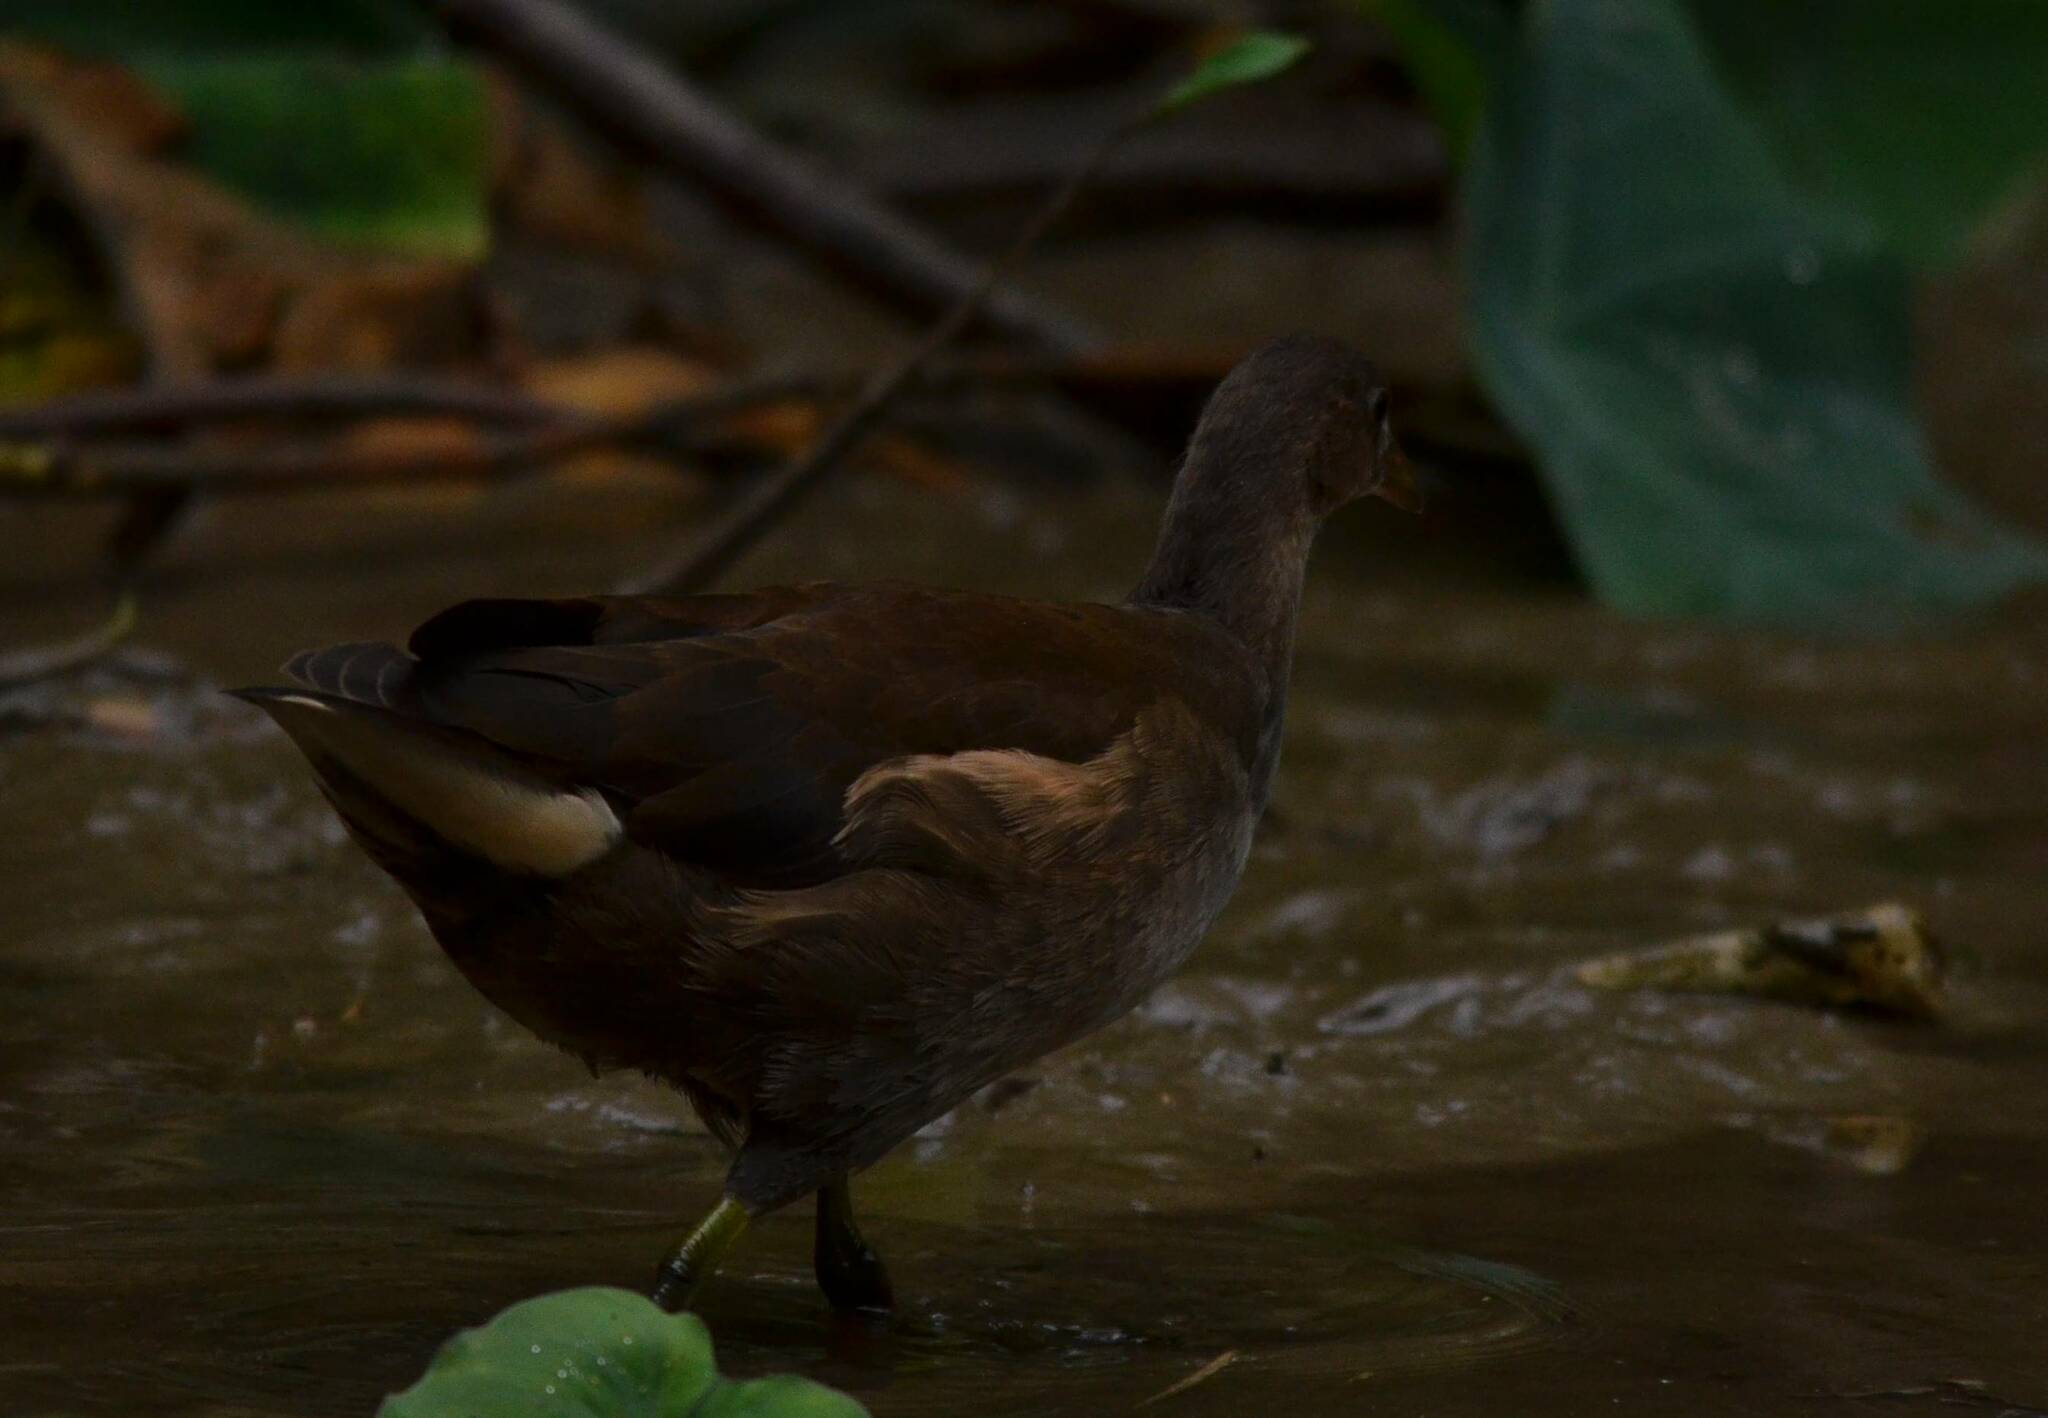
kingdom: Animalia
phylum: Chordata
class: Aves
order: Gruiformes
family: Rallidae
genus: Gallinula
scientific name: Gallinula chloropus
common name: Common moorhen
